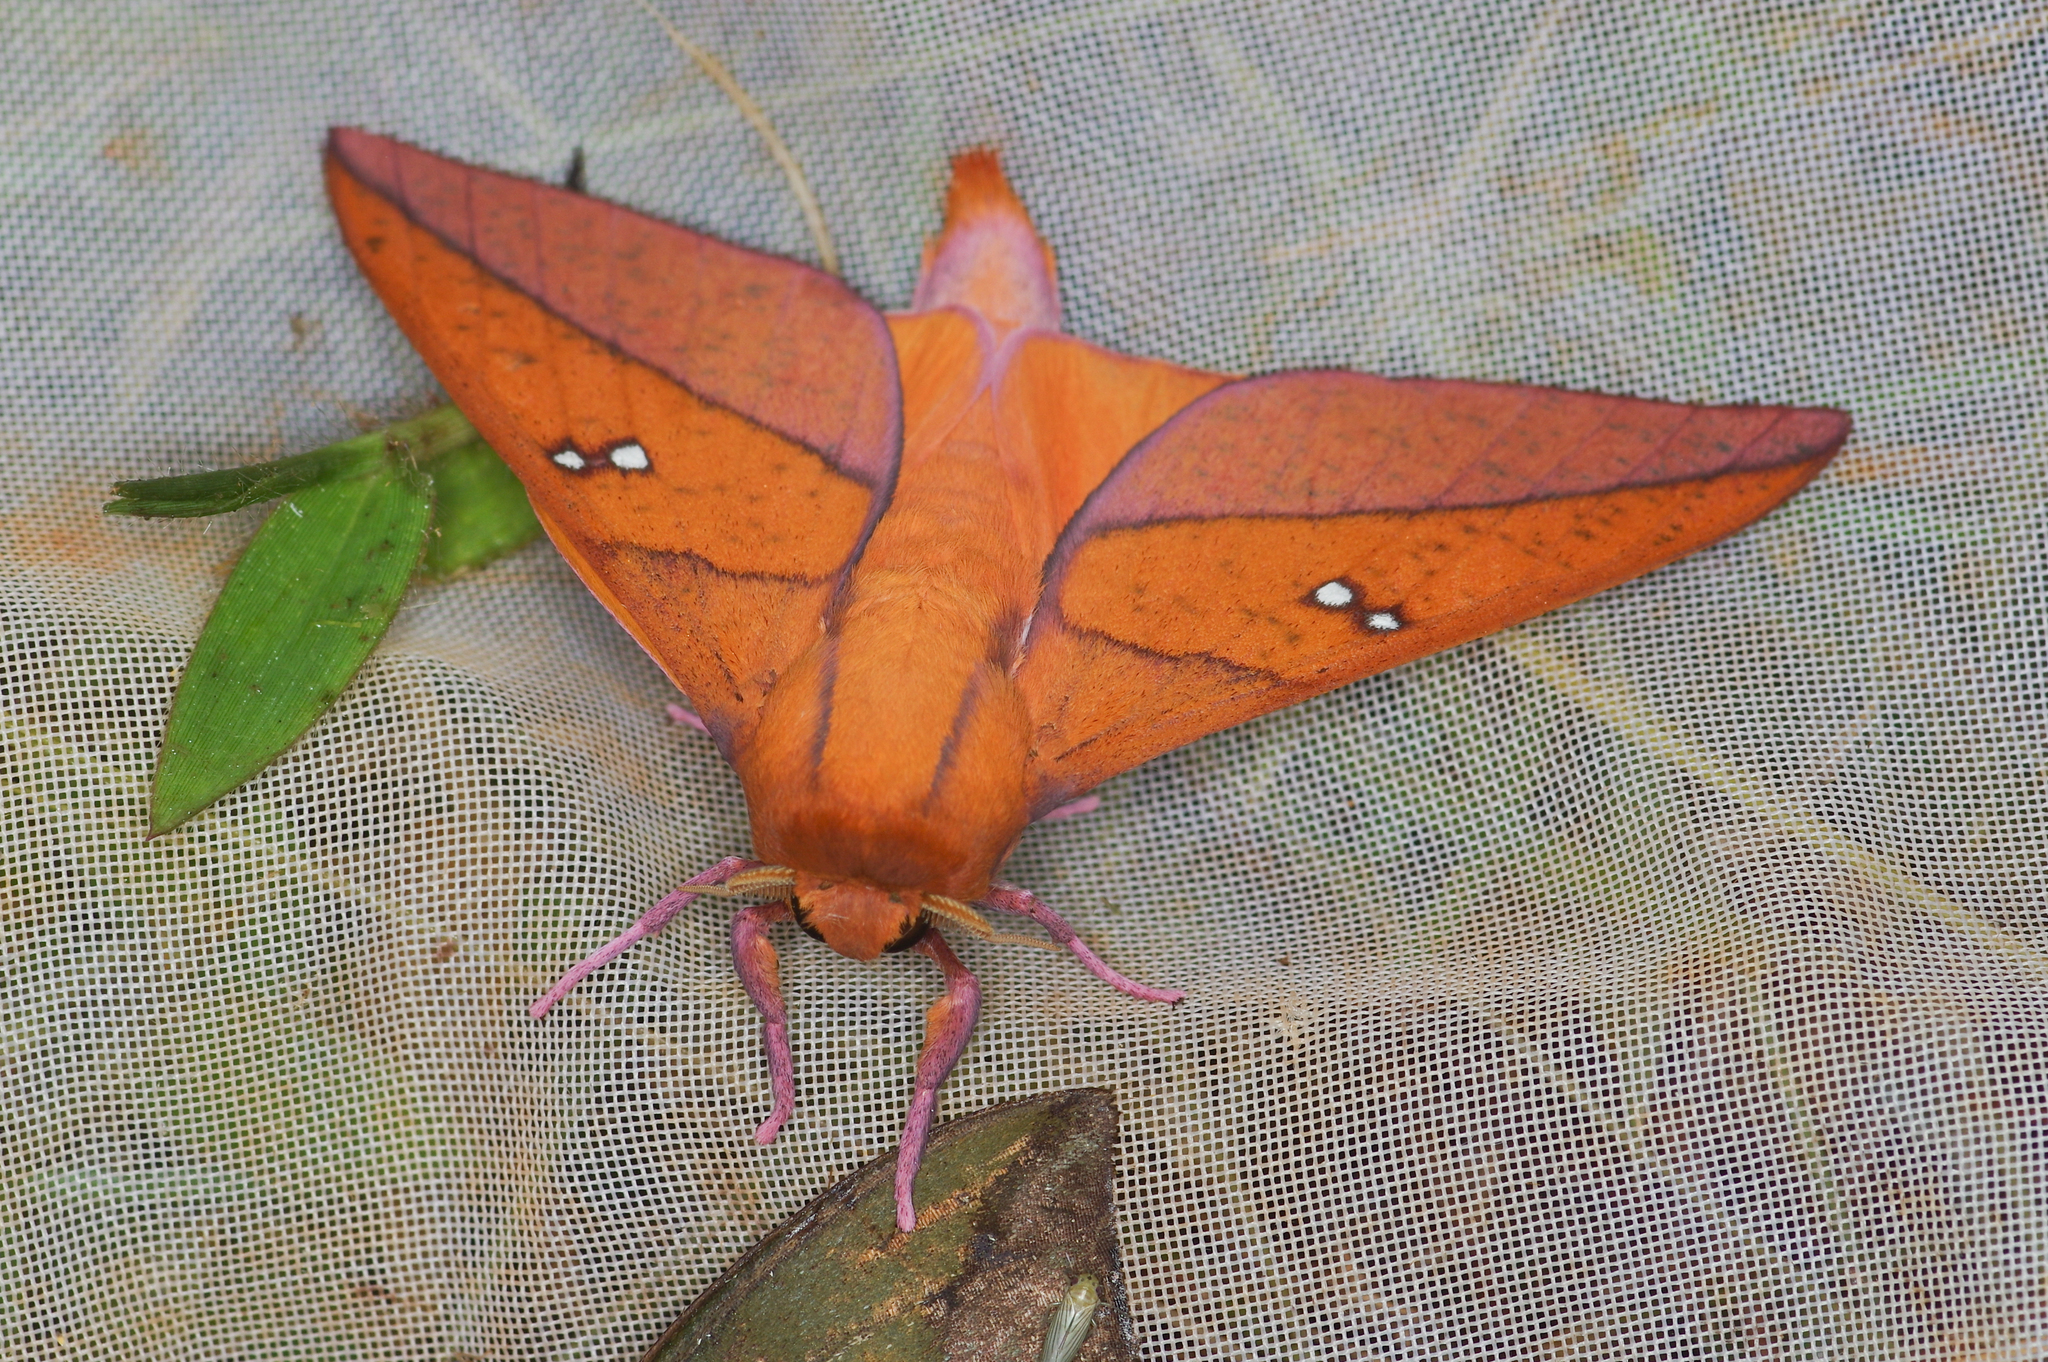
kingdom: Animalia
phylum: Arthropoda
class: Insecta
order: Lepidoptera
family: Saturniidae
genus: Adeloneivaia
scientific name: Adeloneivaia boisduvalii
